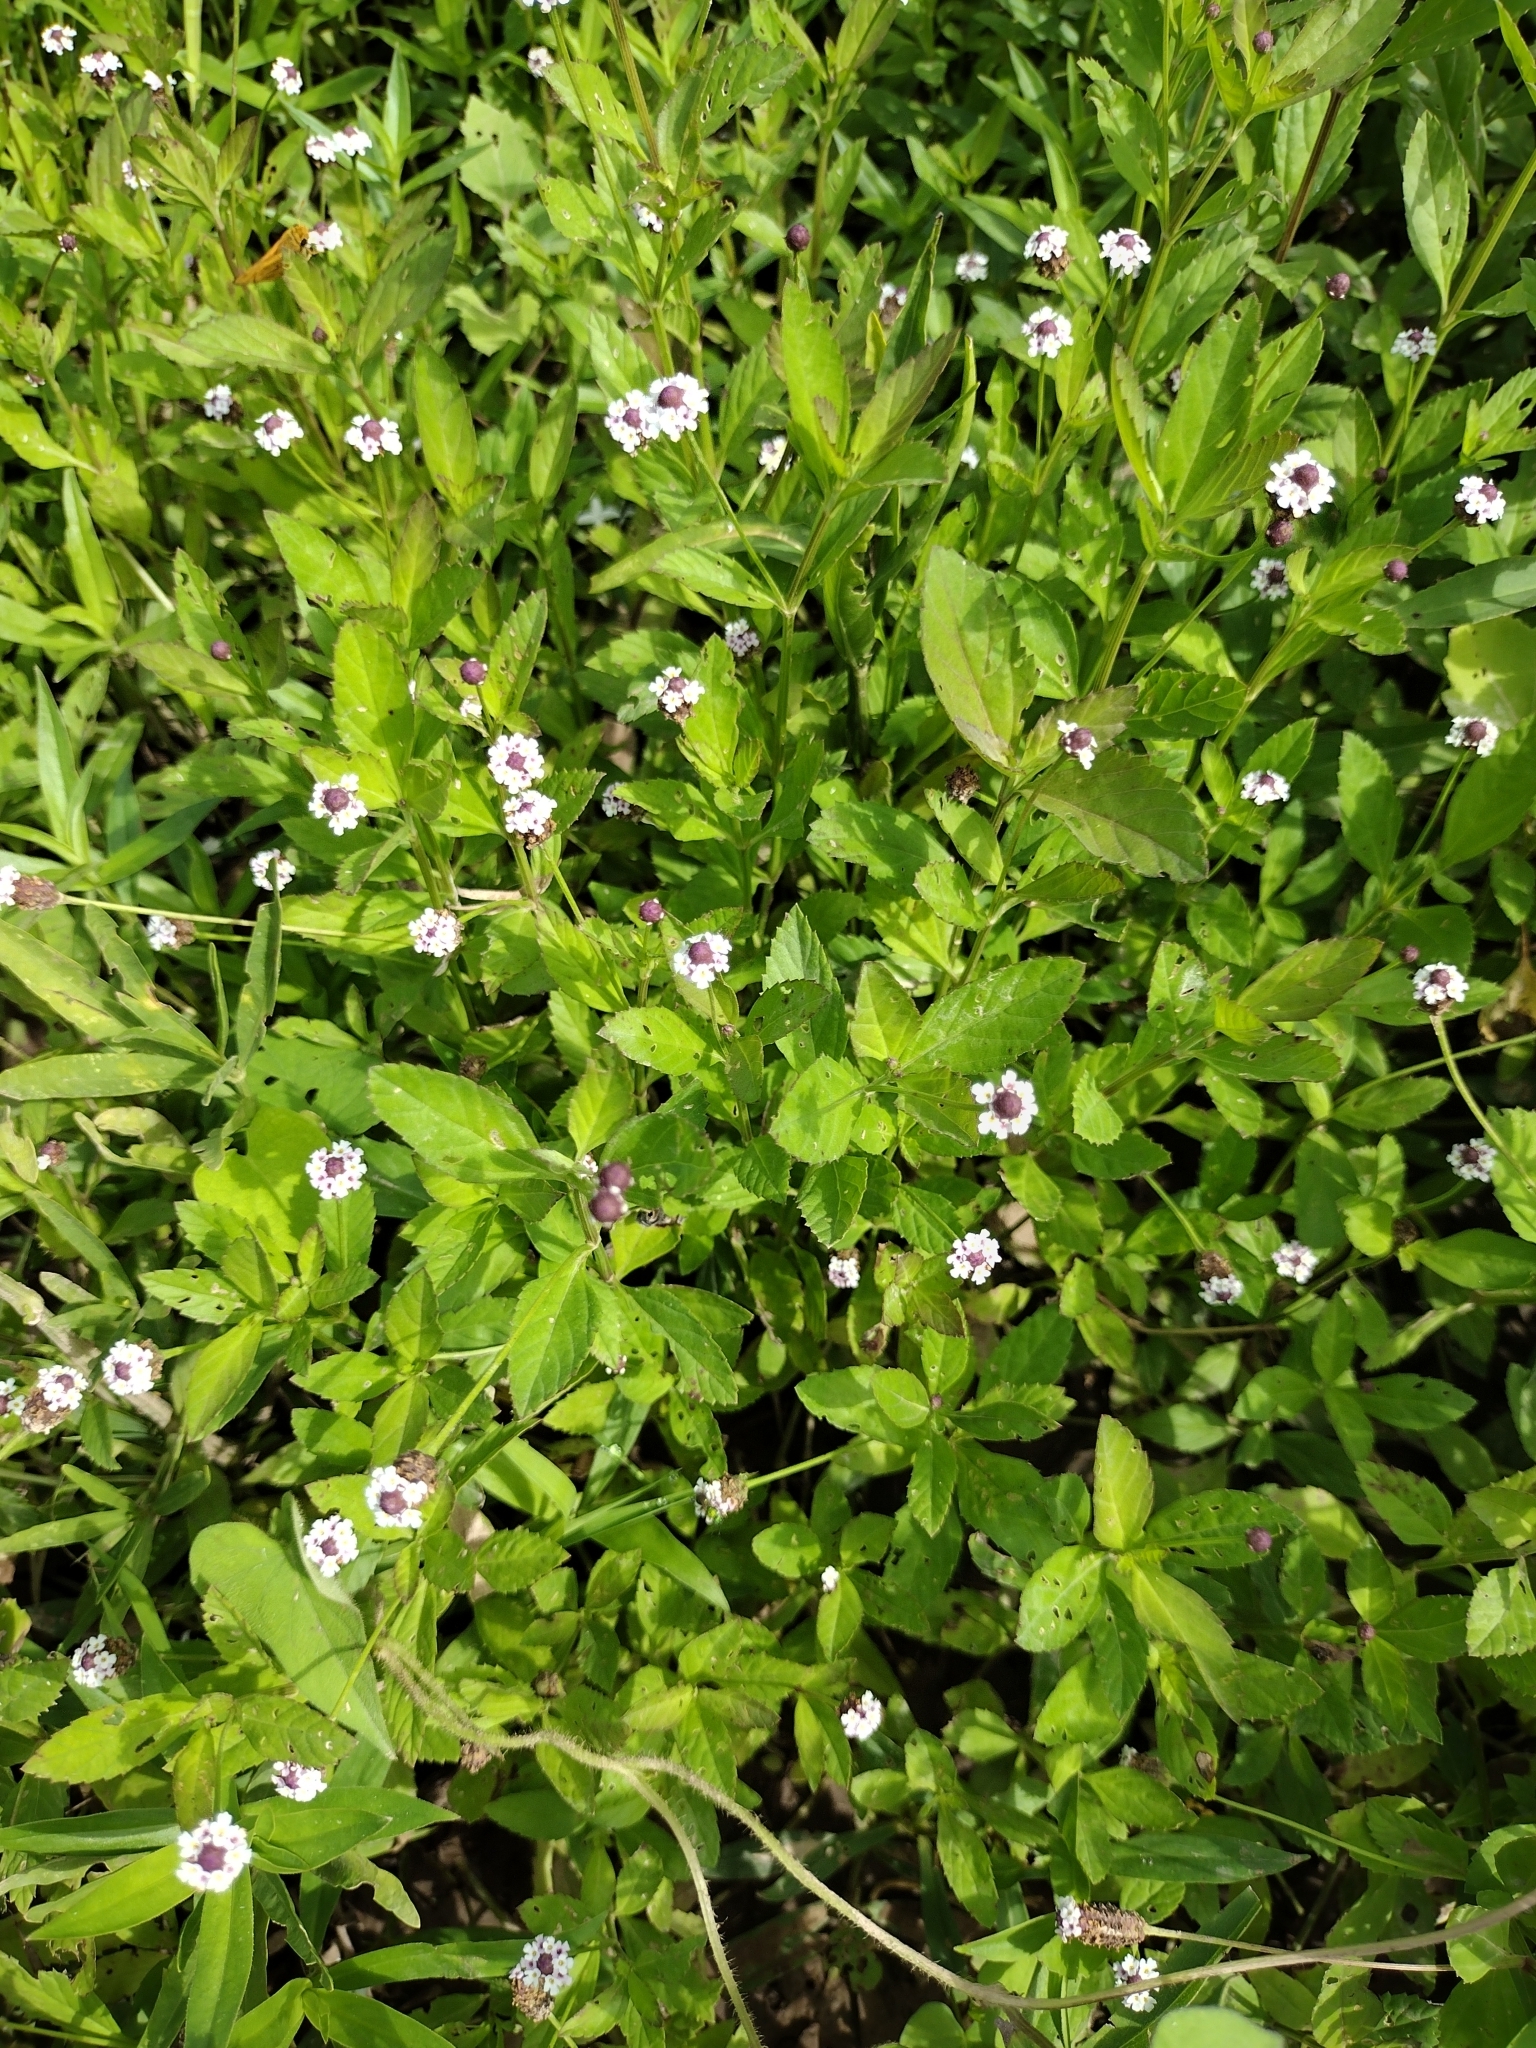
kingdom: Plantae
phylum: Tracheophyta
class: Magnoliopsida
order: Lamiales
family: Verbenaceae
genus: Phyla
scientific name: Phyla lanceolata
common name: Northern fogfruit
